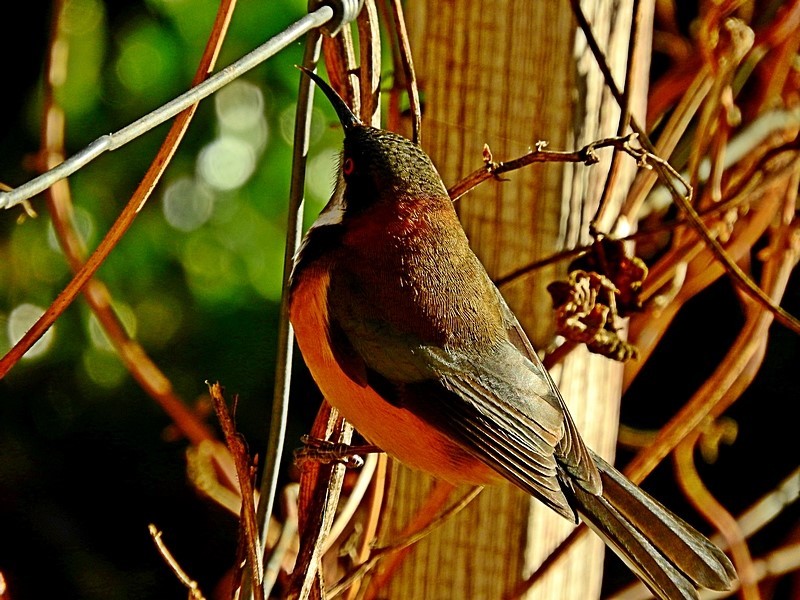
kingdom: Animalia
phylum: Chordata
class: Aves
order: Passeriformes
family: Meliphagidae
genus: Acanthorhynchus
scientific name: Acanthorhynchus tenuirostris
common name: Eastern spinebill
